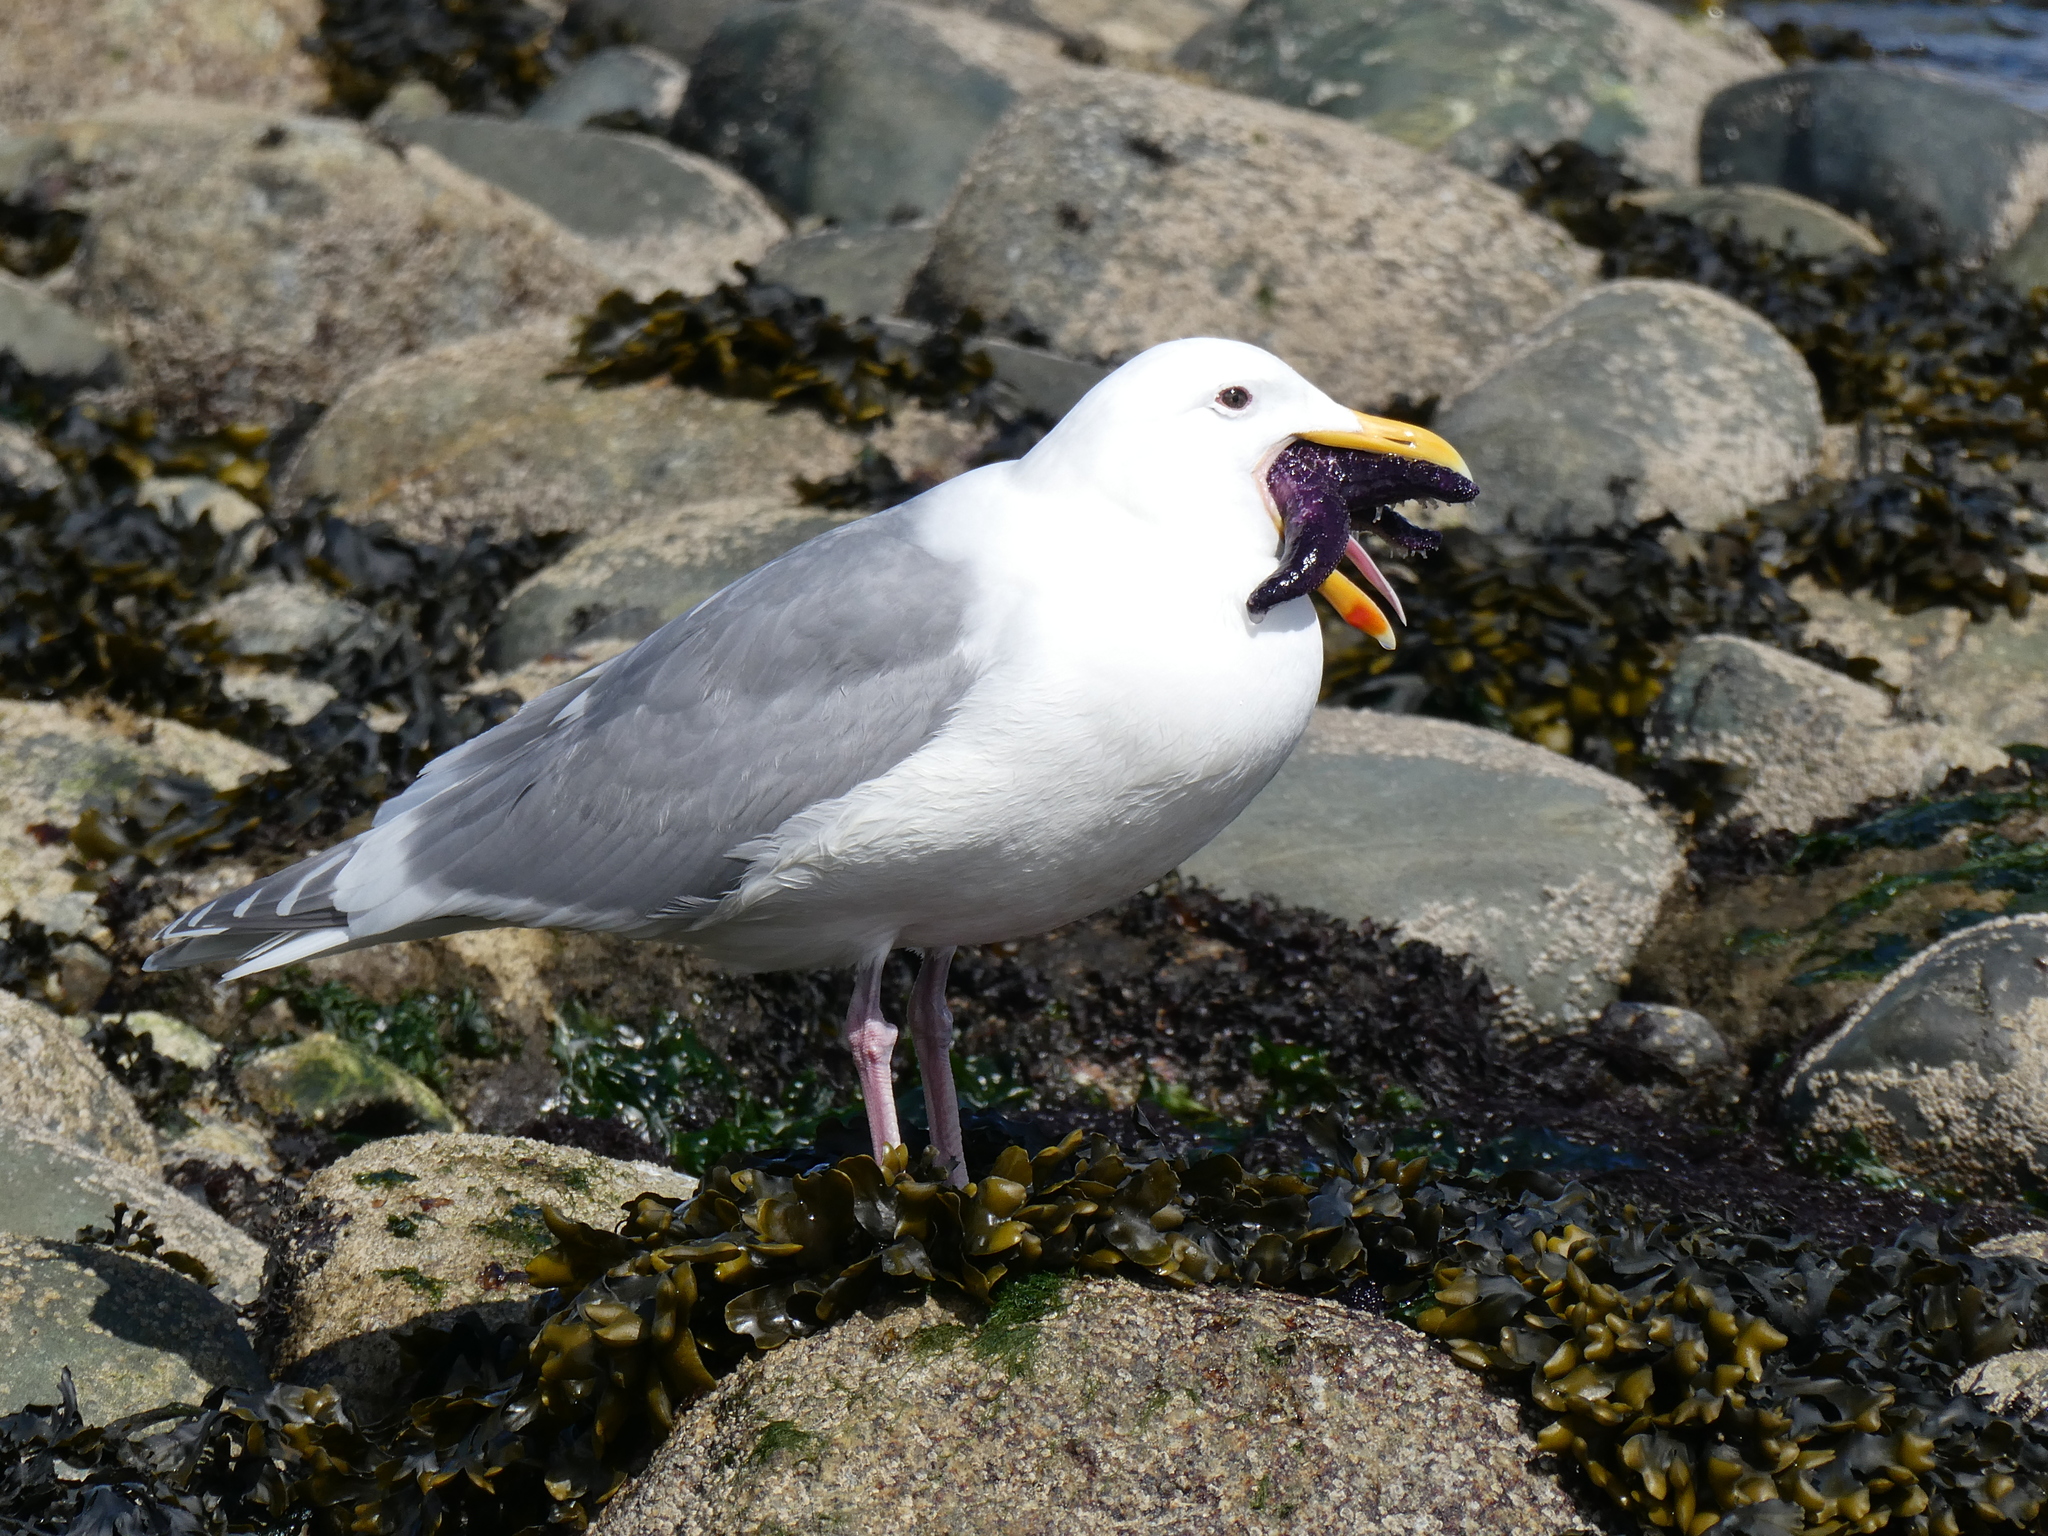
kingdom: Animalia
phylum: Chordata
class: Aves
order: Charadriiformes
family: Laridae
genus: Larus
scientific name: Larus glaucescens
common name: Glaucous-winged gull
